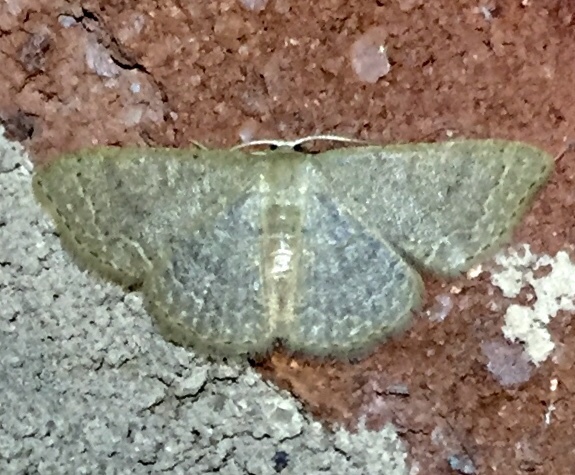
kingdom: Animalia
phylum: Arthropoda
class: Insecta
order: Lepidoptera
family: Geometridae
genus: Pleuroprucha
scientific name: Pleuroprucha insulsaria
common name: Common tan wave
